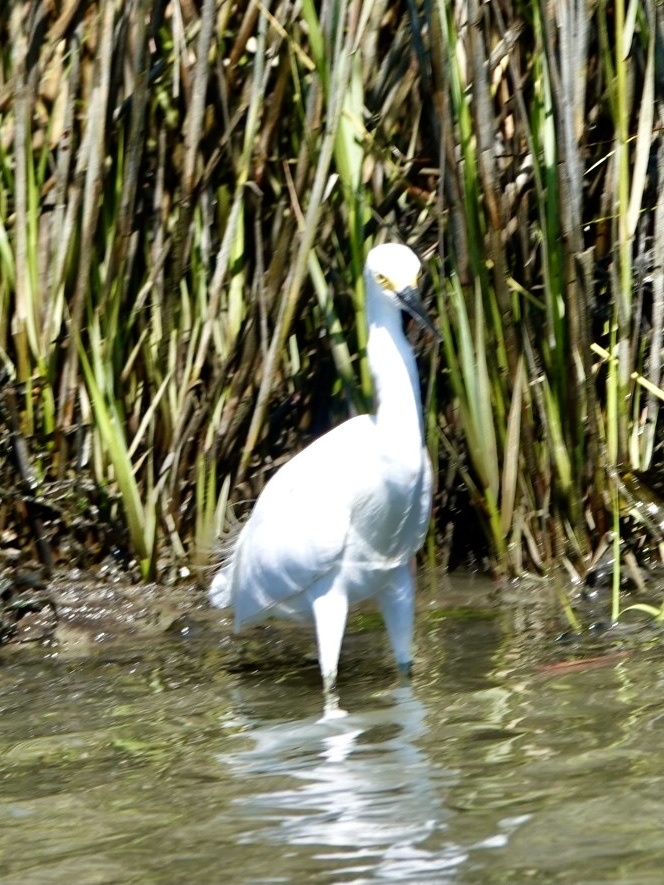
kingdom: Animalia
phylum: Chordata
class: Aves
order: Pelecaniformes
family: Ardeidae
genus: Egretta
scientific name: Egretta thula
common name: Snowy egret
